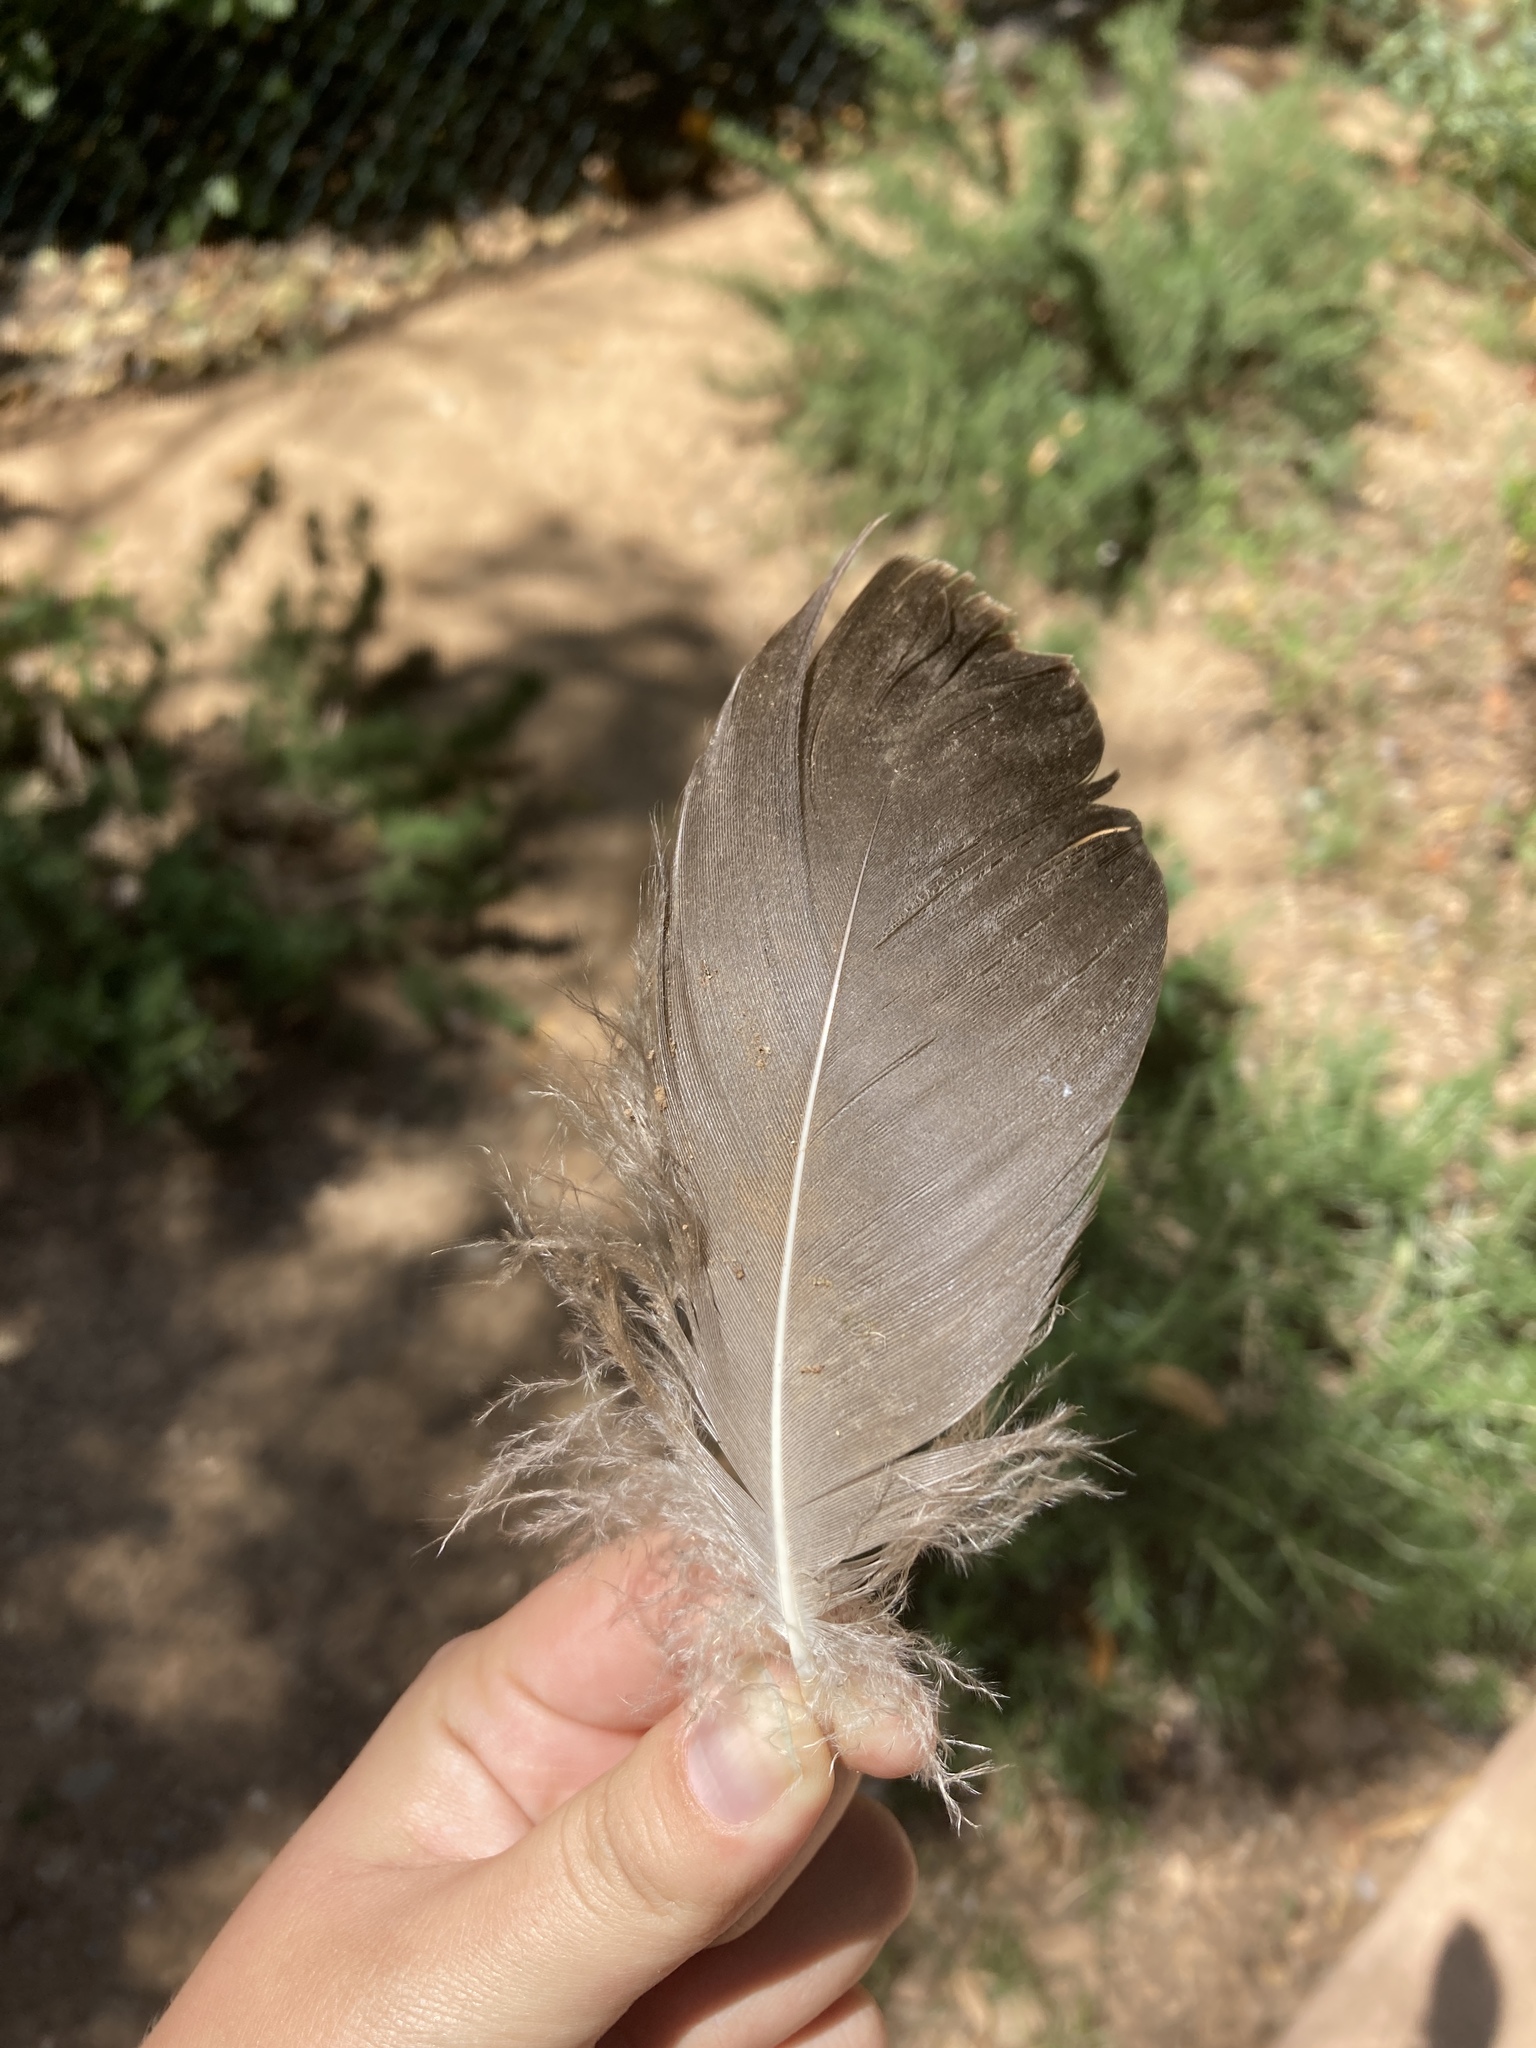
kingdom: Animalia
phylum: Chordata
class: Aves
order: Anseriformes
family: Anatidae
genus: Anser
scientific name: Anser anser
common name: Greylag goose
